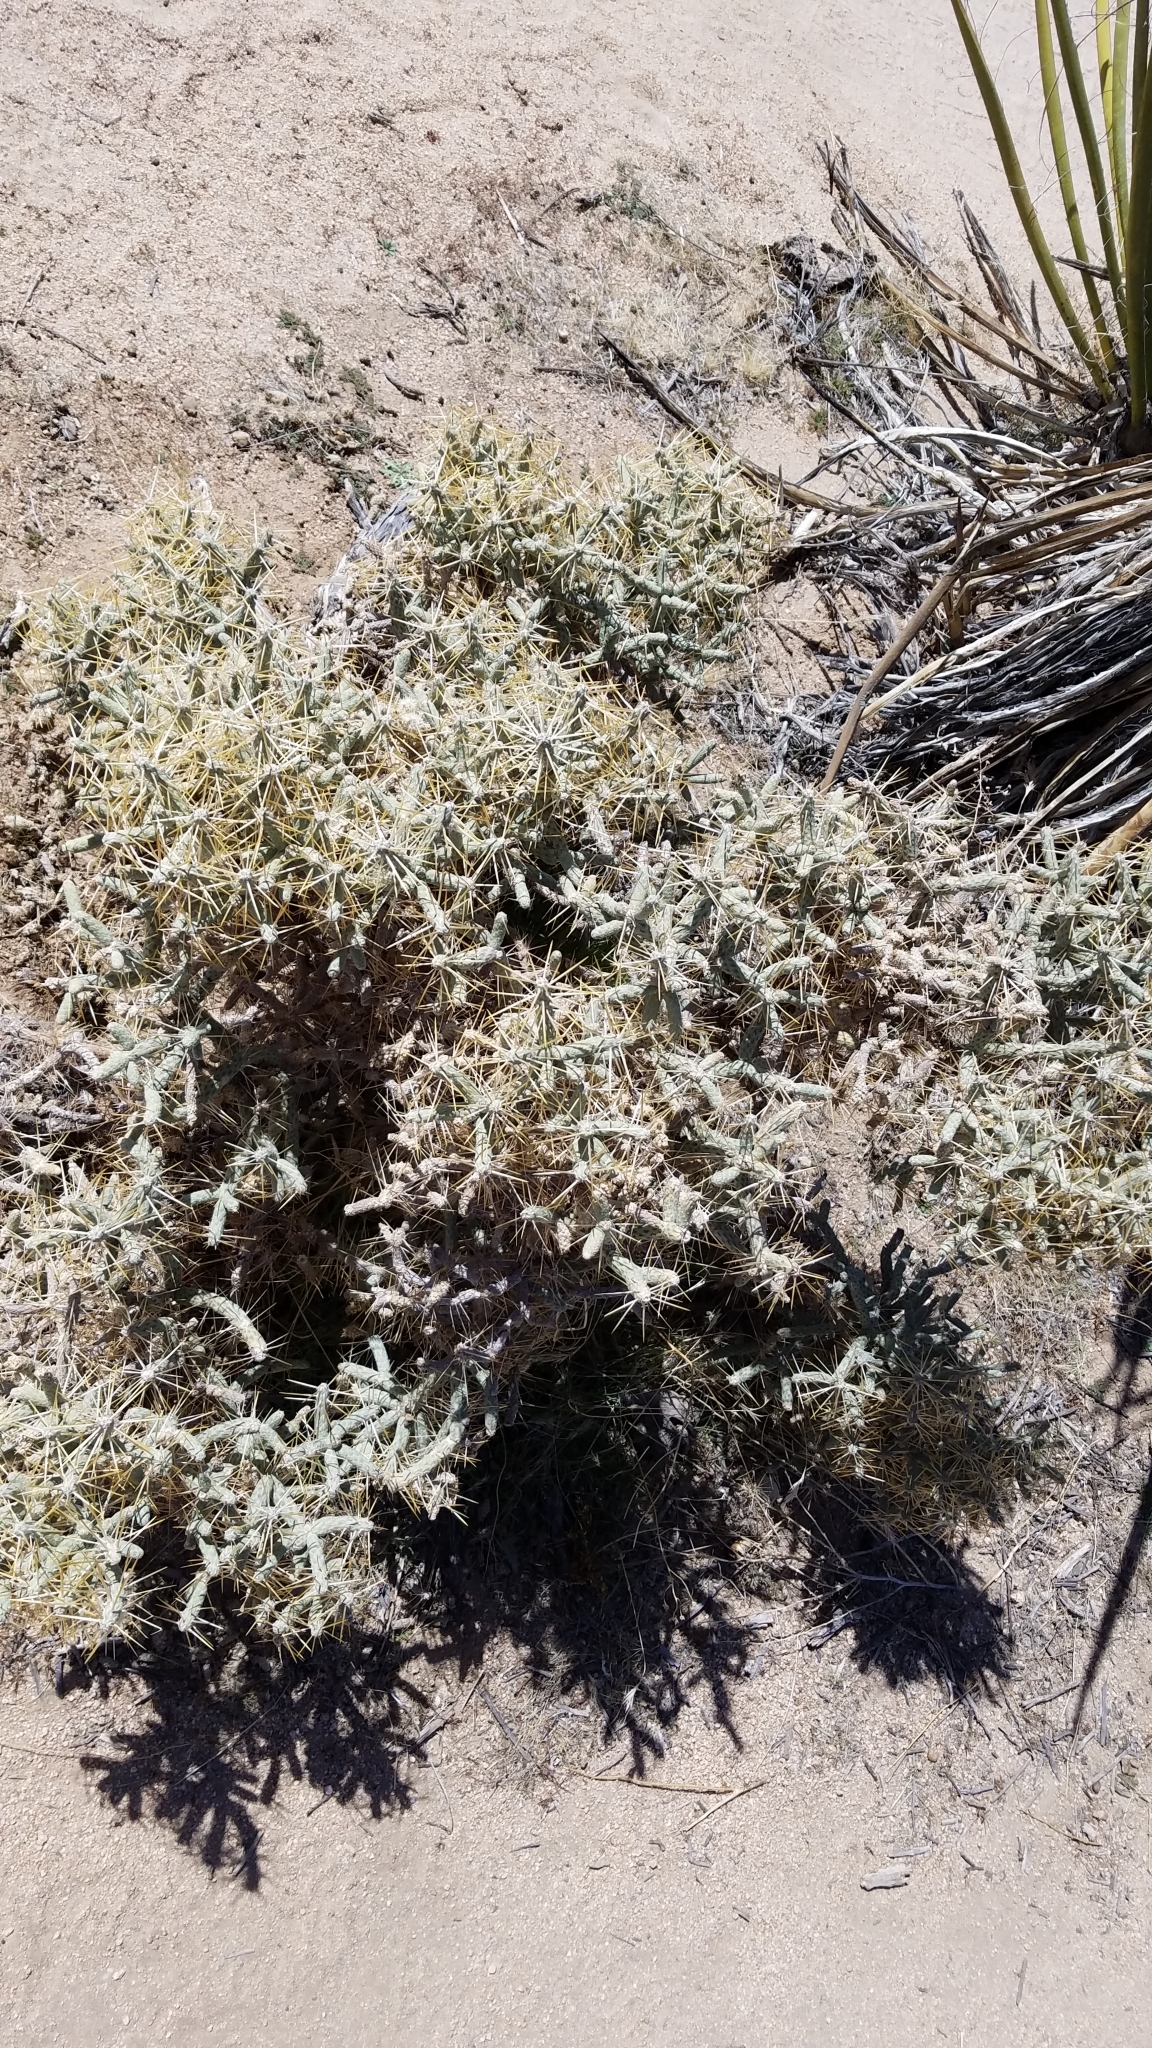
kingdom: Plantae
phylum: Tracheophyta
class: Magnoliopsida
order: Caryophyllales
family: Cactaceae
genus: Cylindropuntia
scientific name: Cylindropuntia ramosissima
